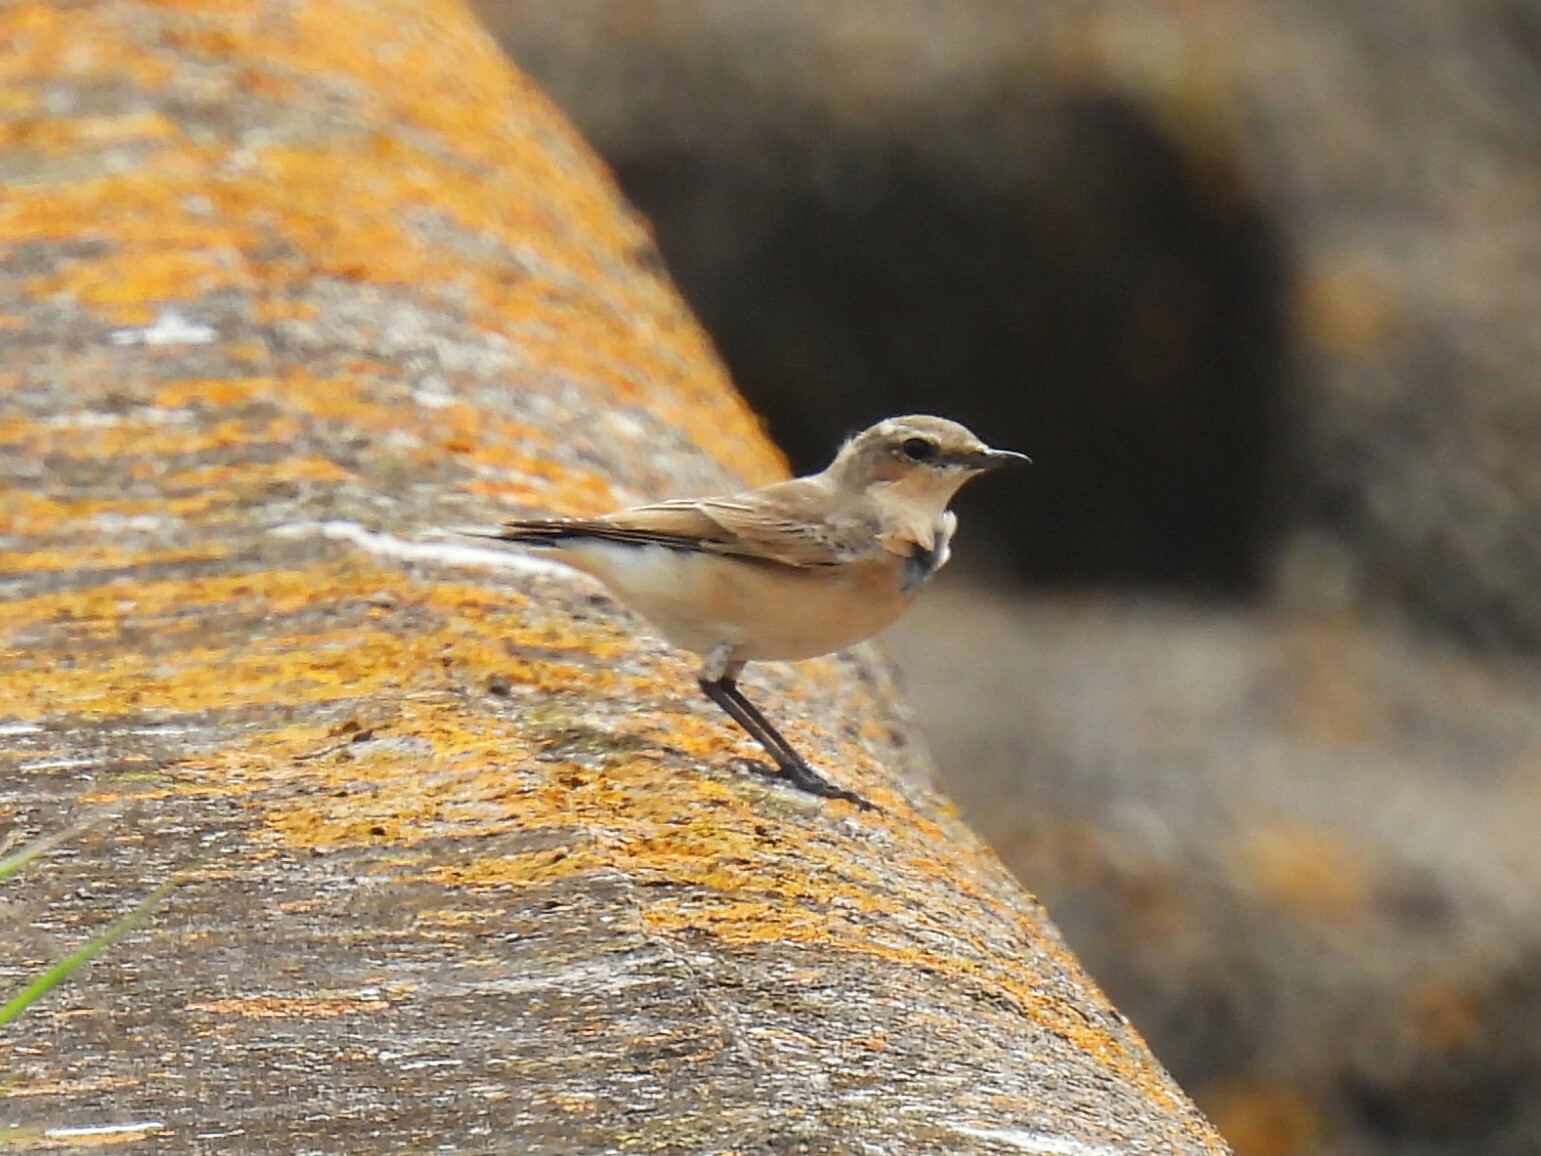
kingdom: Animalia
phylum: Chordata
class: Aves
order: Passeriformes
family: Muscicapidae
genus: Oenanthe
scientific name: Oenanthe oenanthe
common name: Northern wheatear
